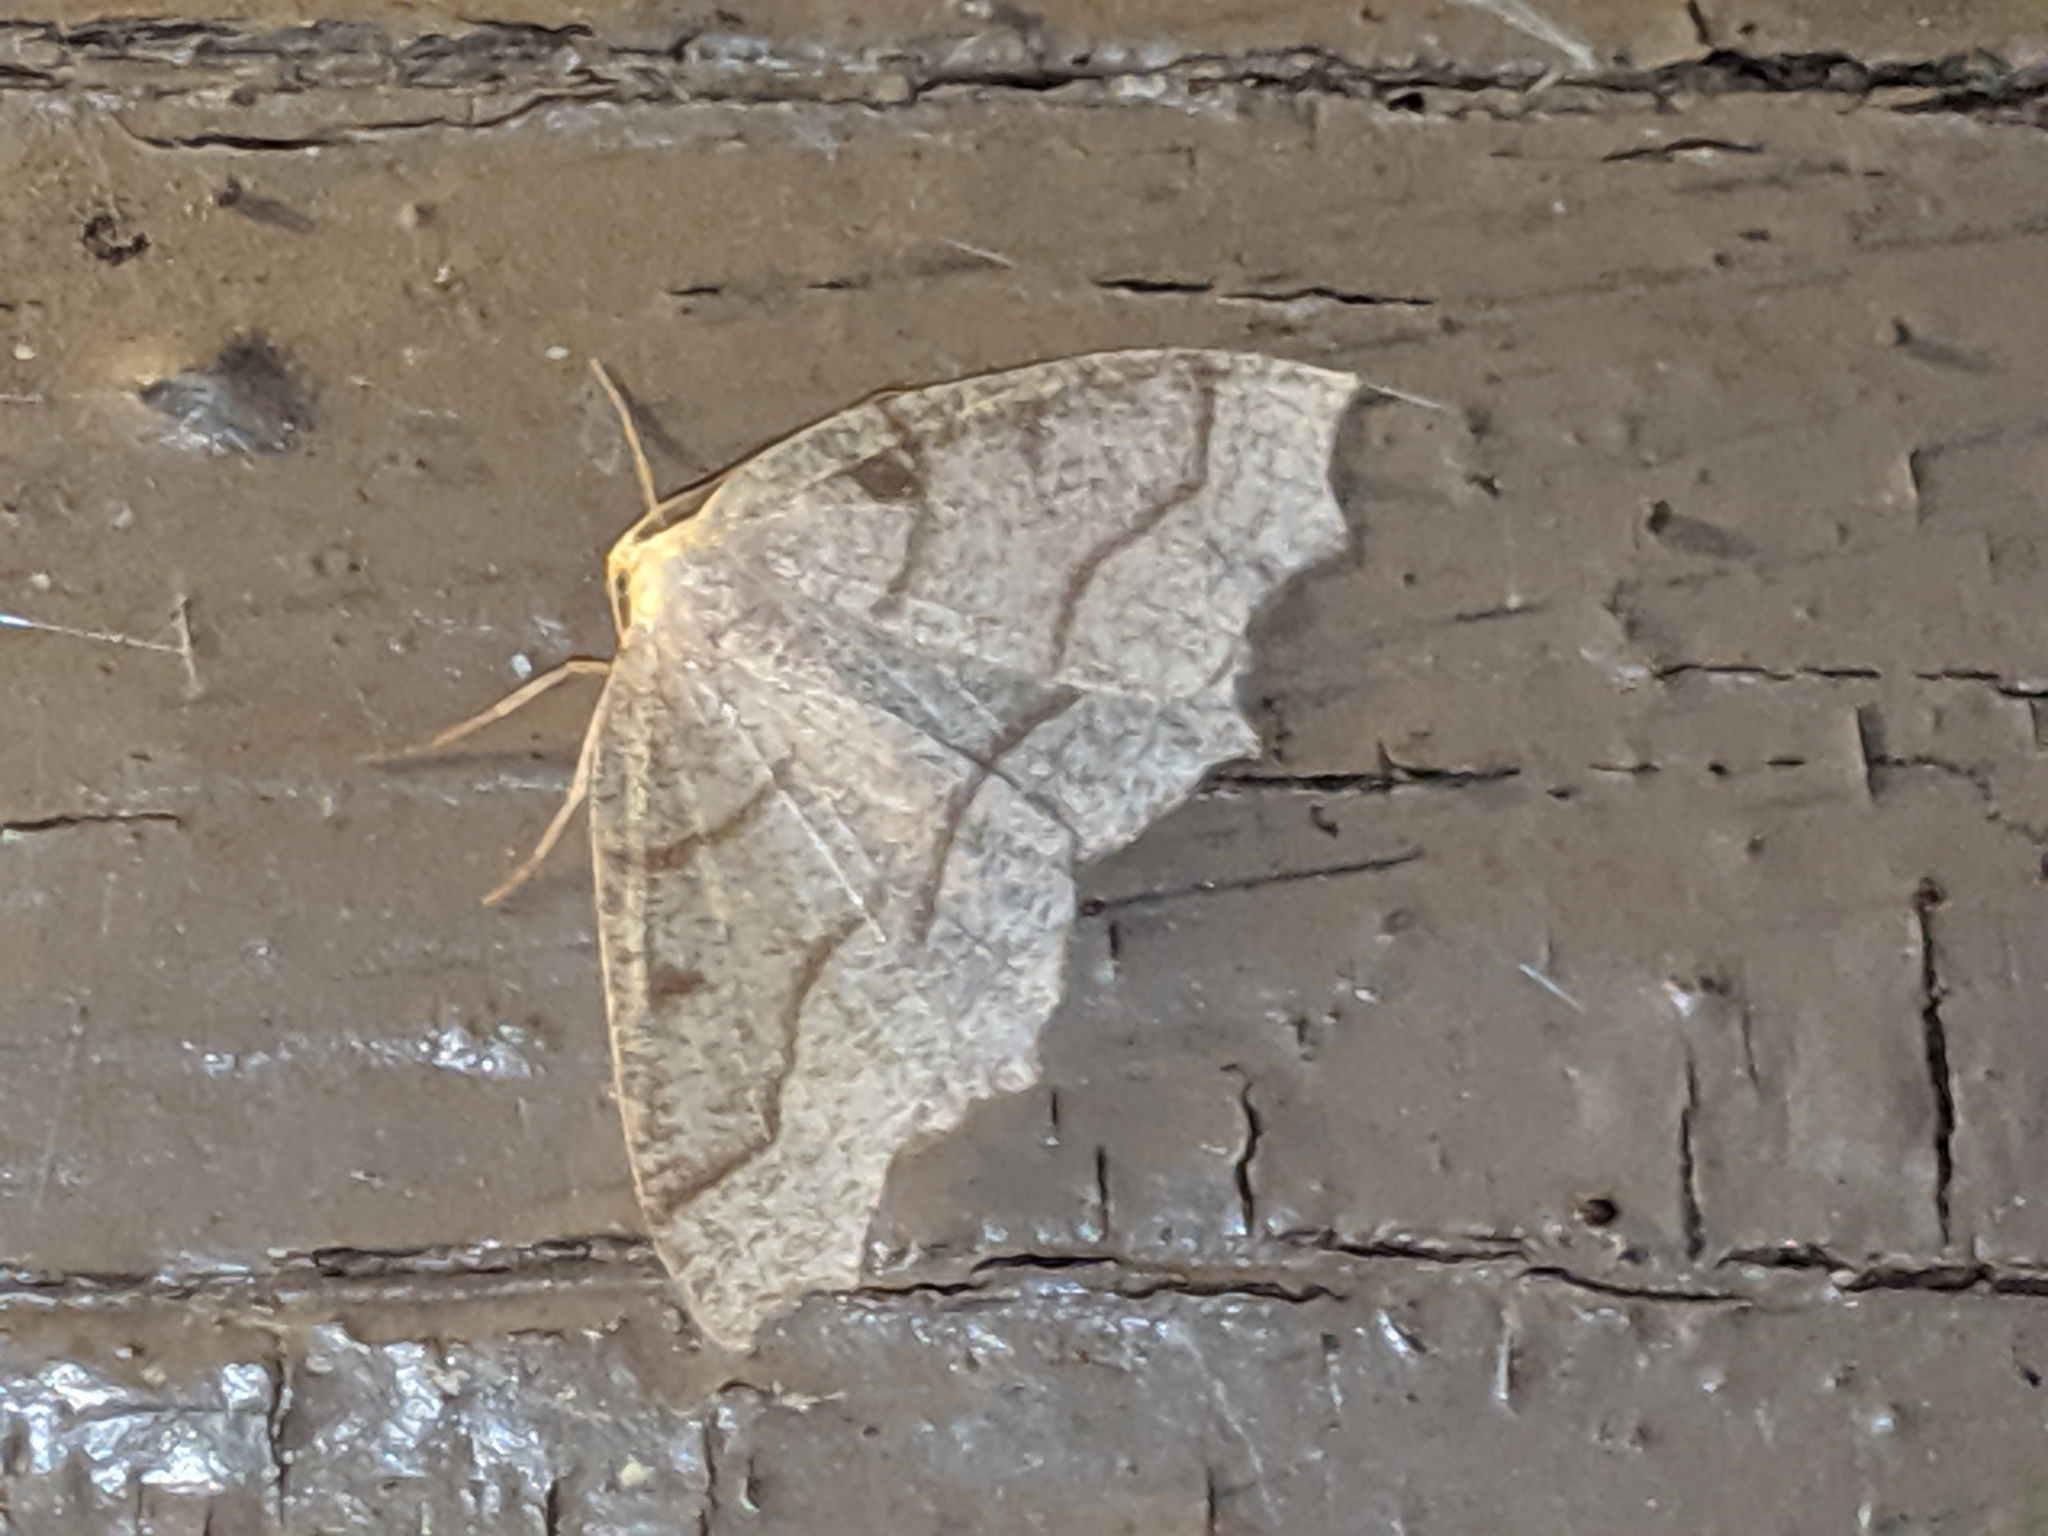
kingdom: Animalia
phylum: Arthropoda
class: Insecta
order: Lepidoptera
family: Geometridae
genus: Lambdina
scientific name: Lambdina fiscellaria
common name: Hemlock looper
